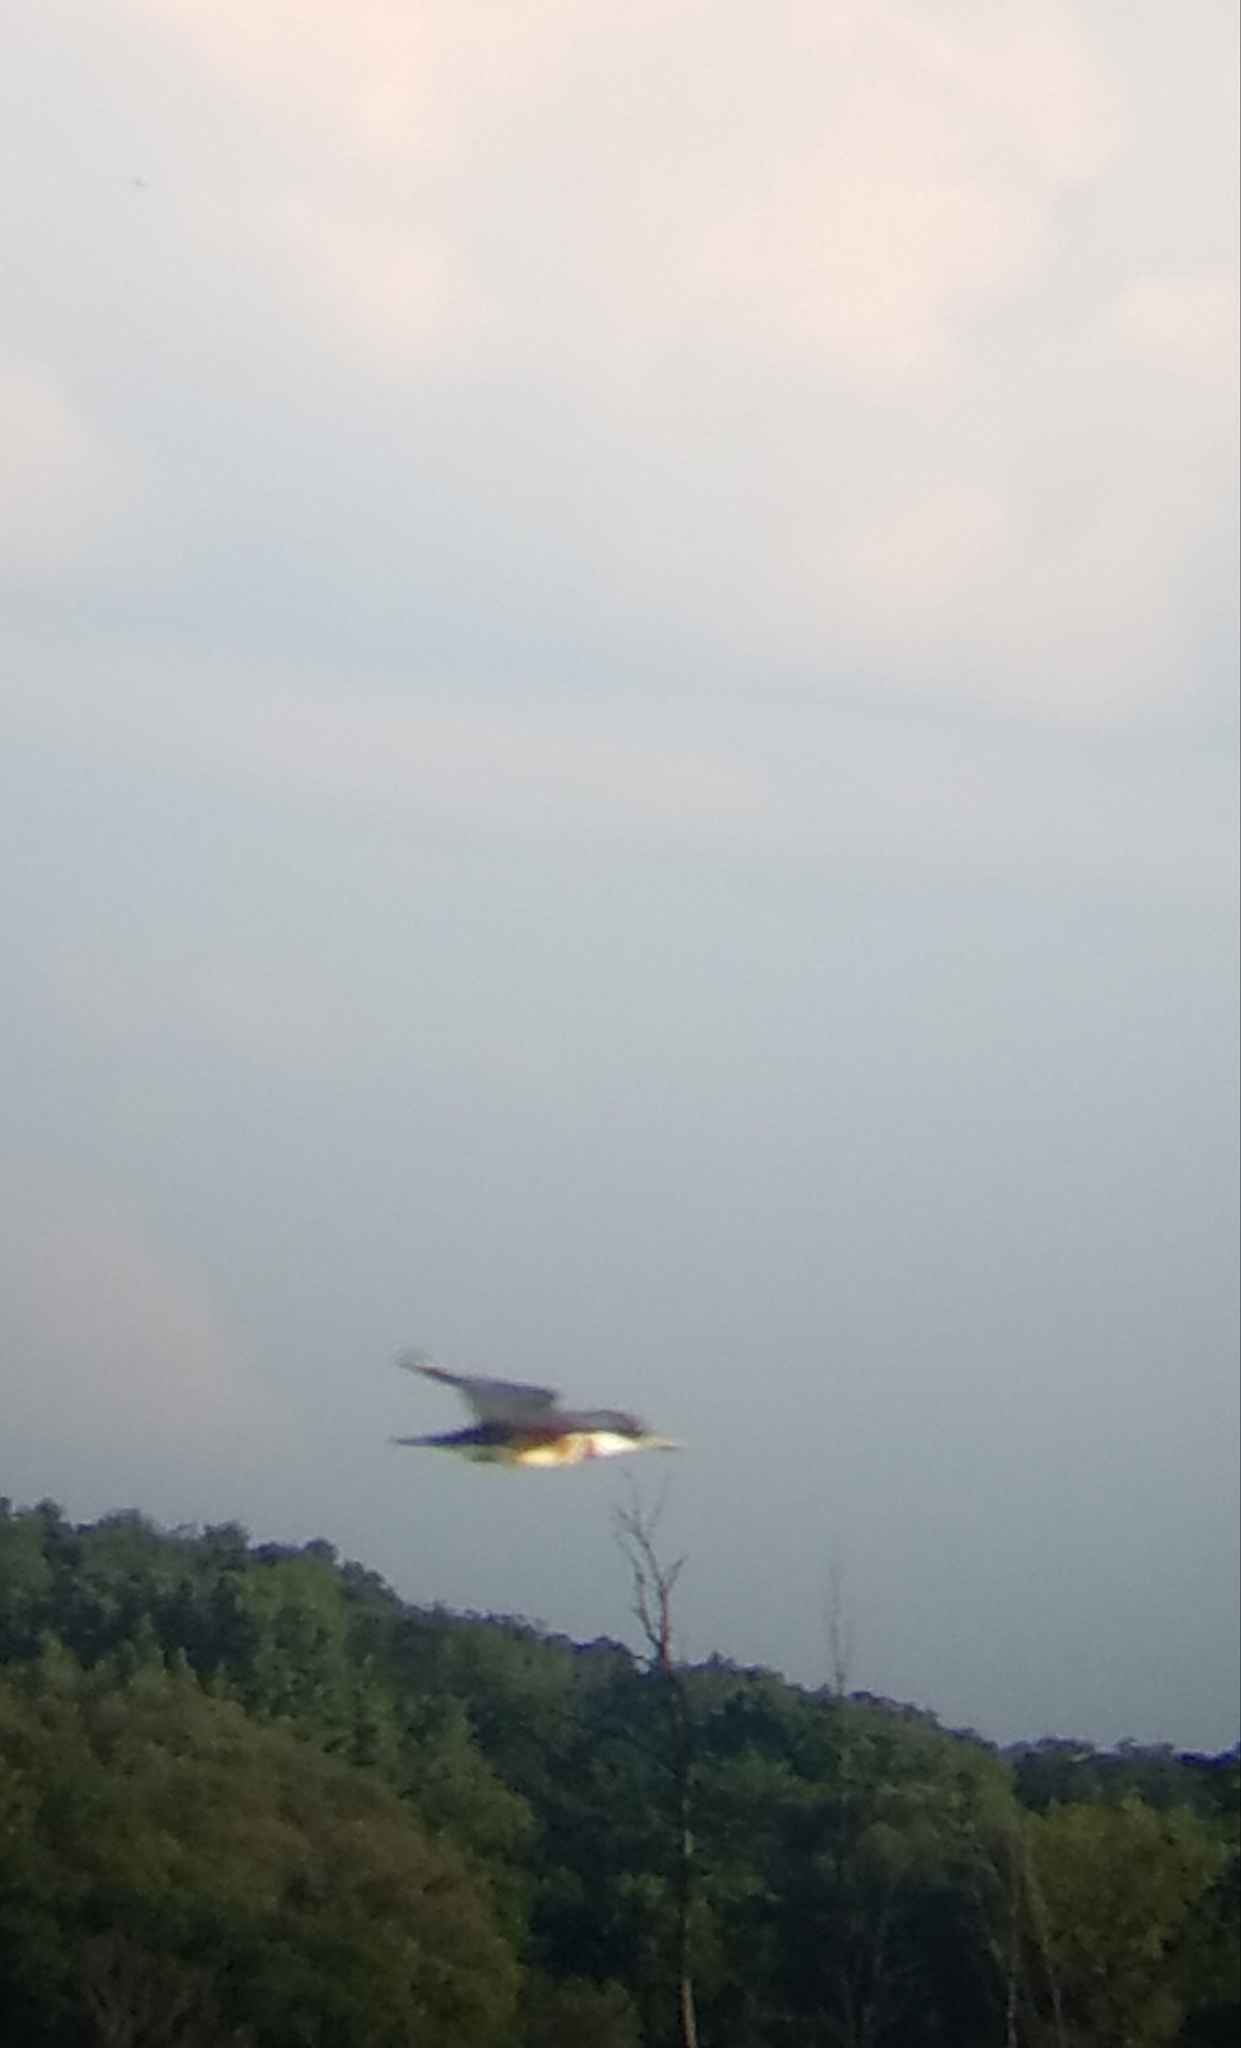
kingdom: Animalia
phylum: Chordata
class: Aves
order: Coraciiformes
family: Alcedinidae
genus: Megaceryle
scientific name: Megaceryle alcyon
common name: Belted kingfisher
